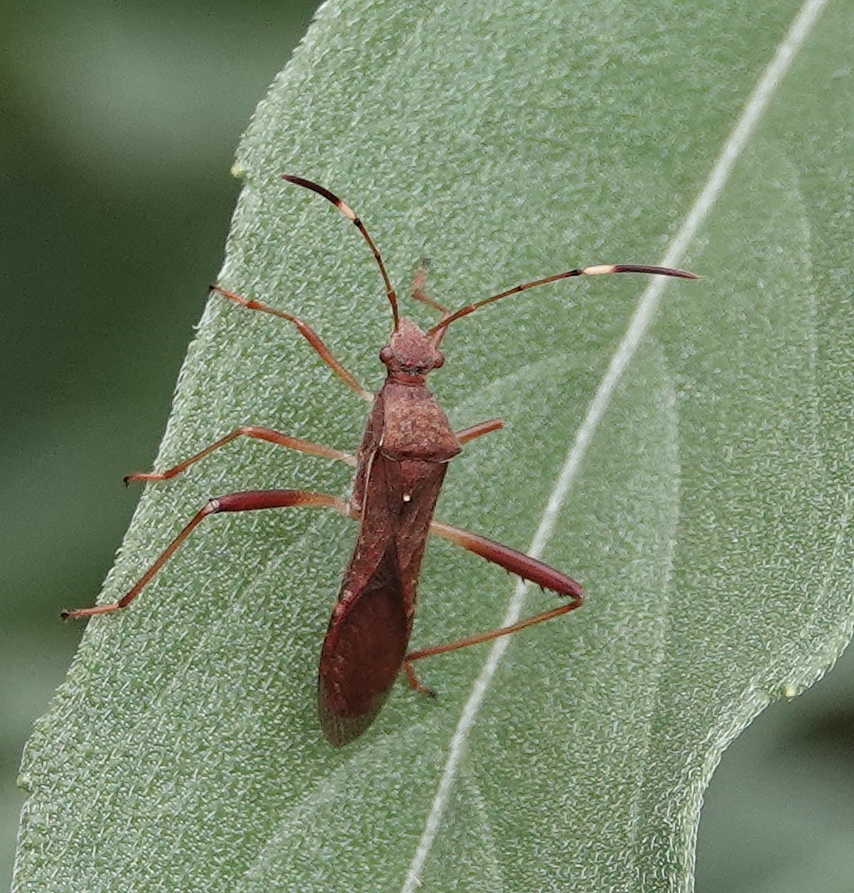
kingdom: Animalia
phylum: Arthropoda
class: Insecta
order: Hemiptera
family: Alydidae
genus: Megalotomus
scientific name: Megalotomus quinquespinosus
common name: Lupine bug
